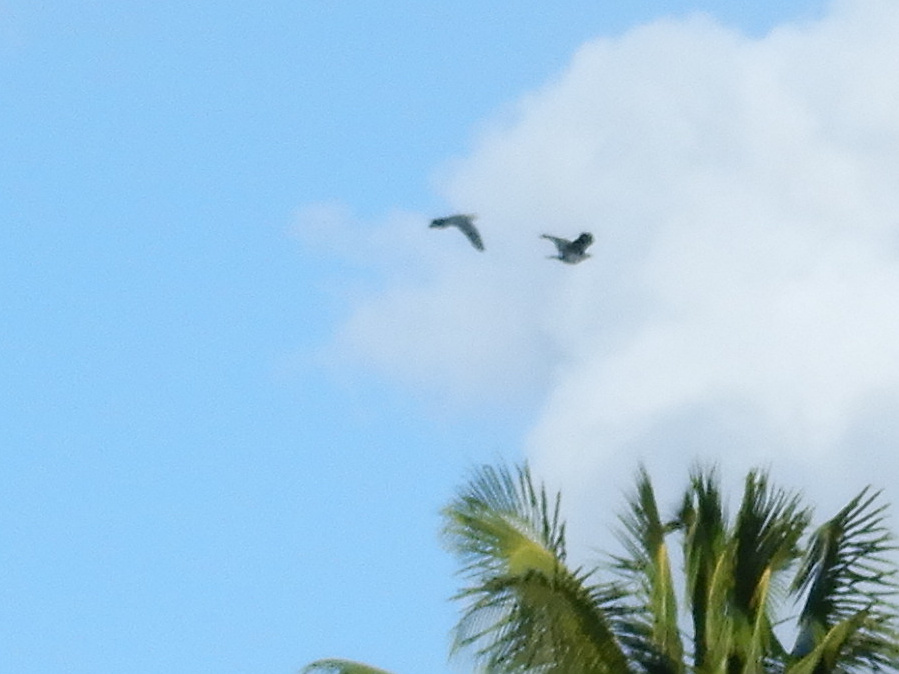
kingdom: Animalia
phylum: Chordata
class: Aves
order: Columbiformes
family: Columbidae
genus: Ducula
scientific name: Ducula pacifica
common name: Pacific imperial-pigeon
